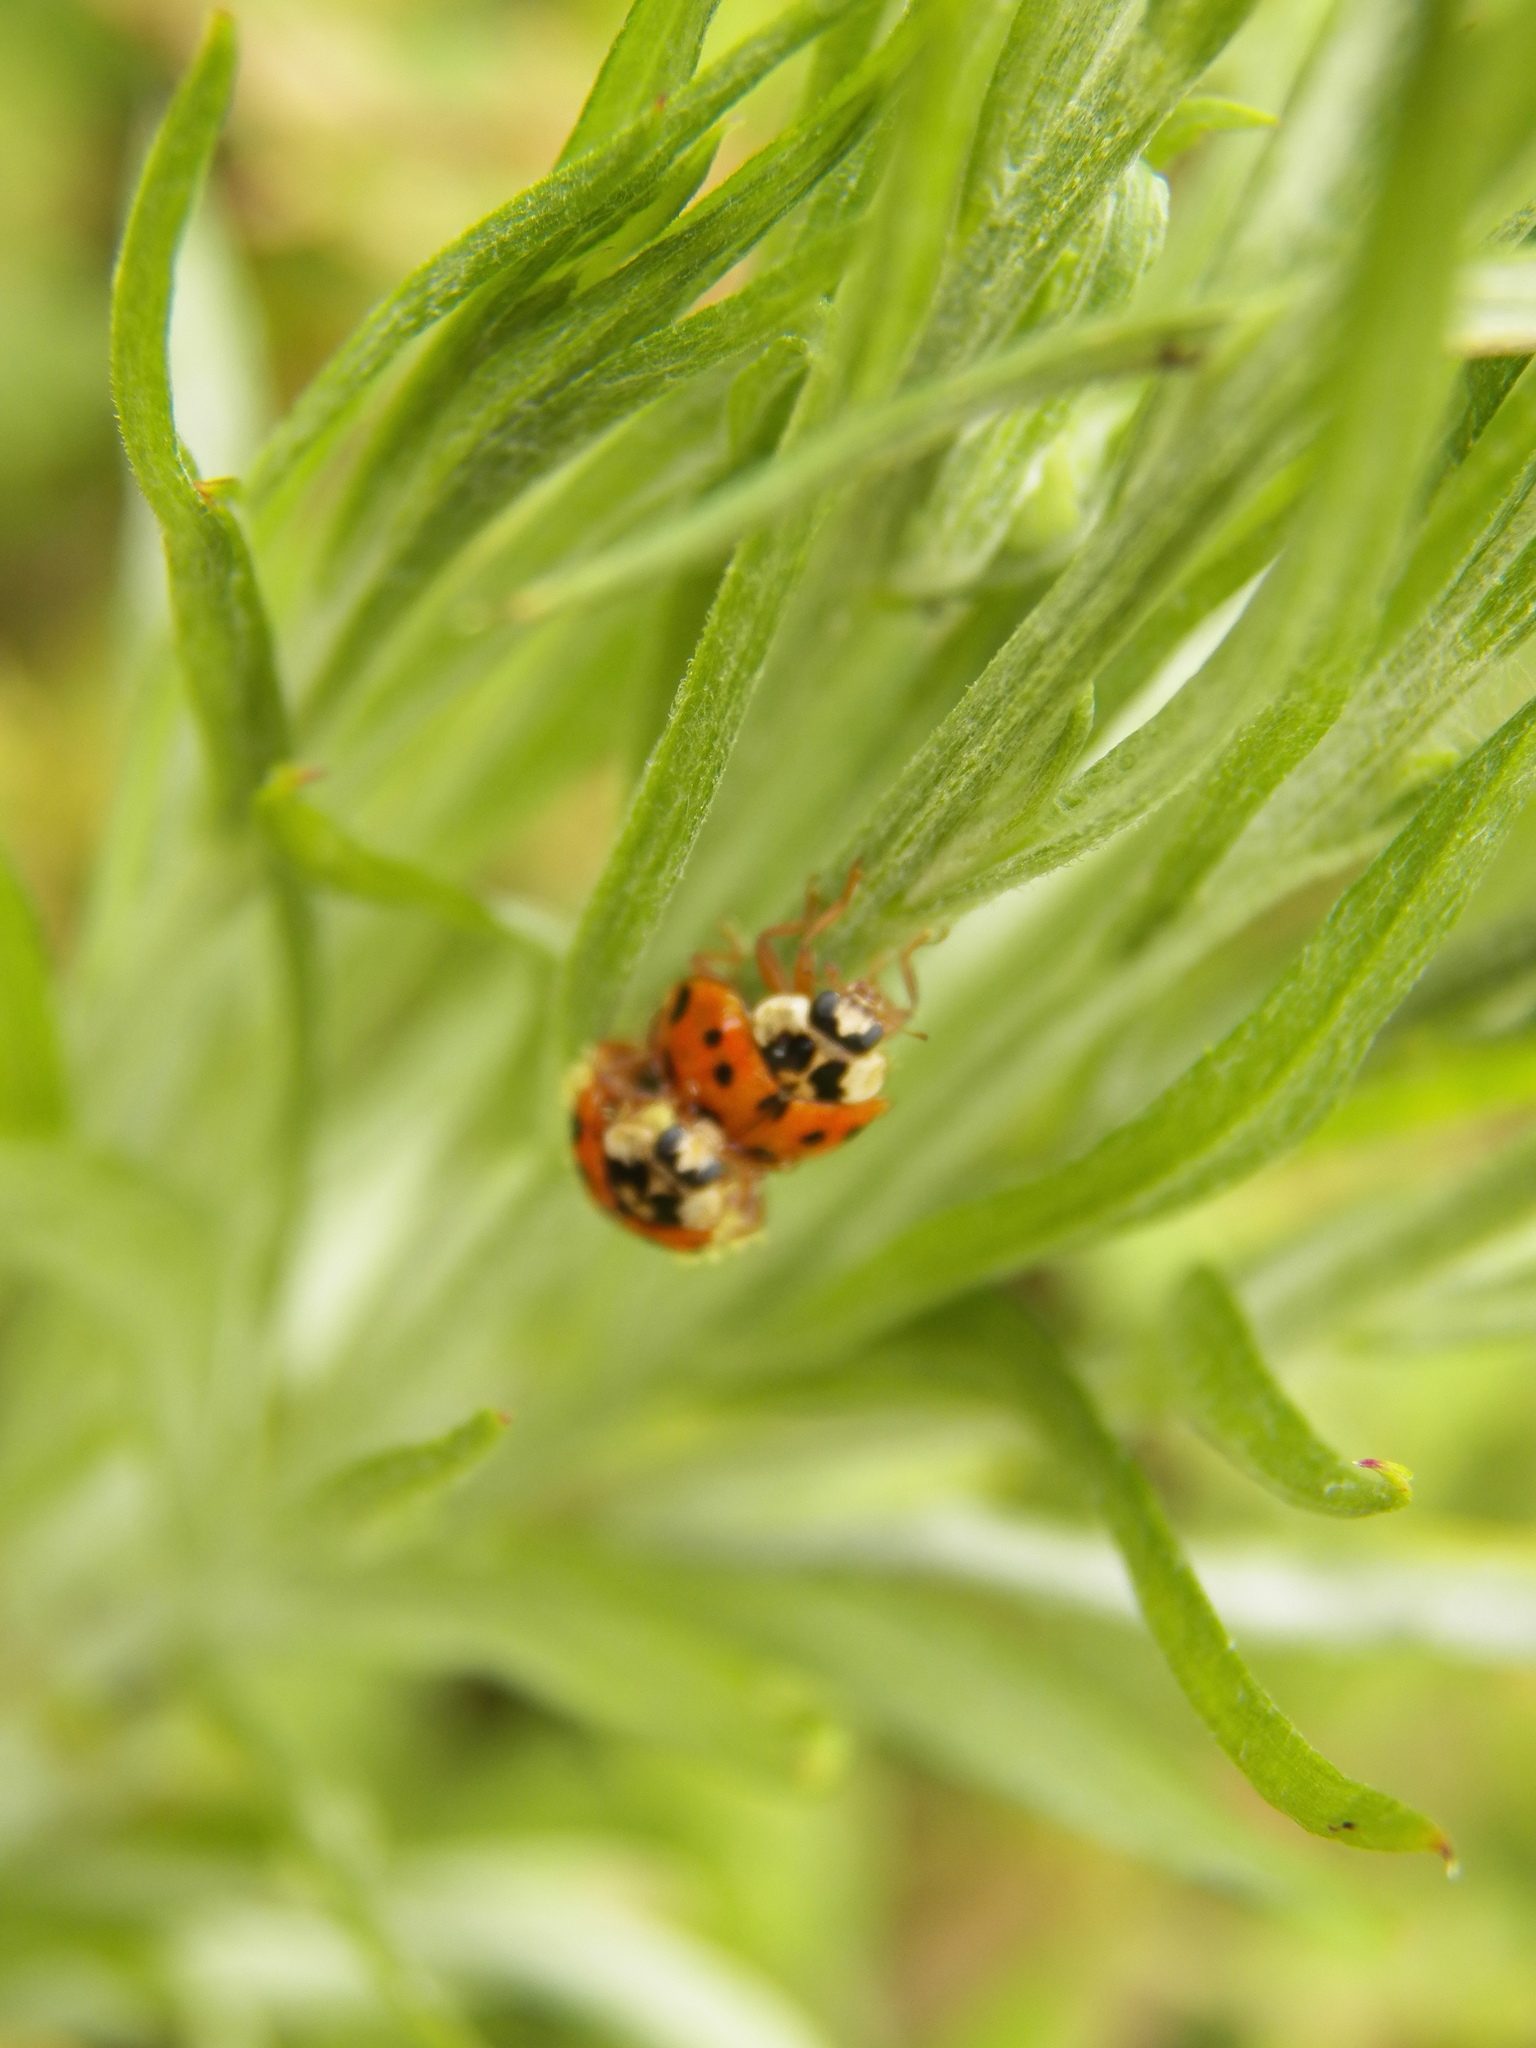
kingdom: Animalia
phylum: Arthropoda
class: Insecta
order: Coleoptera
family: Coccinellidae
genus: Harmonia
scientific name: Harmonia axyridis
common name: Harlequin ladybird
